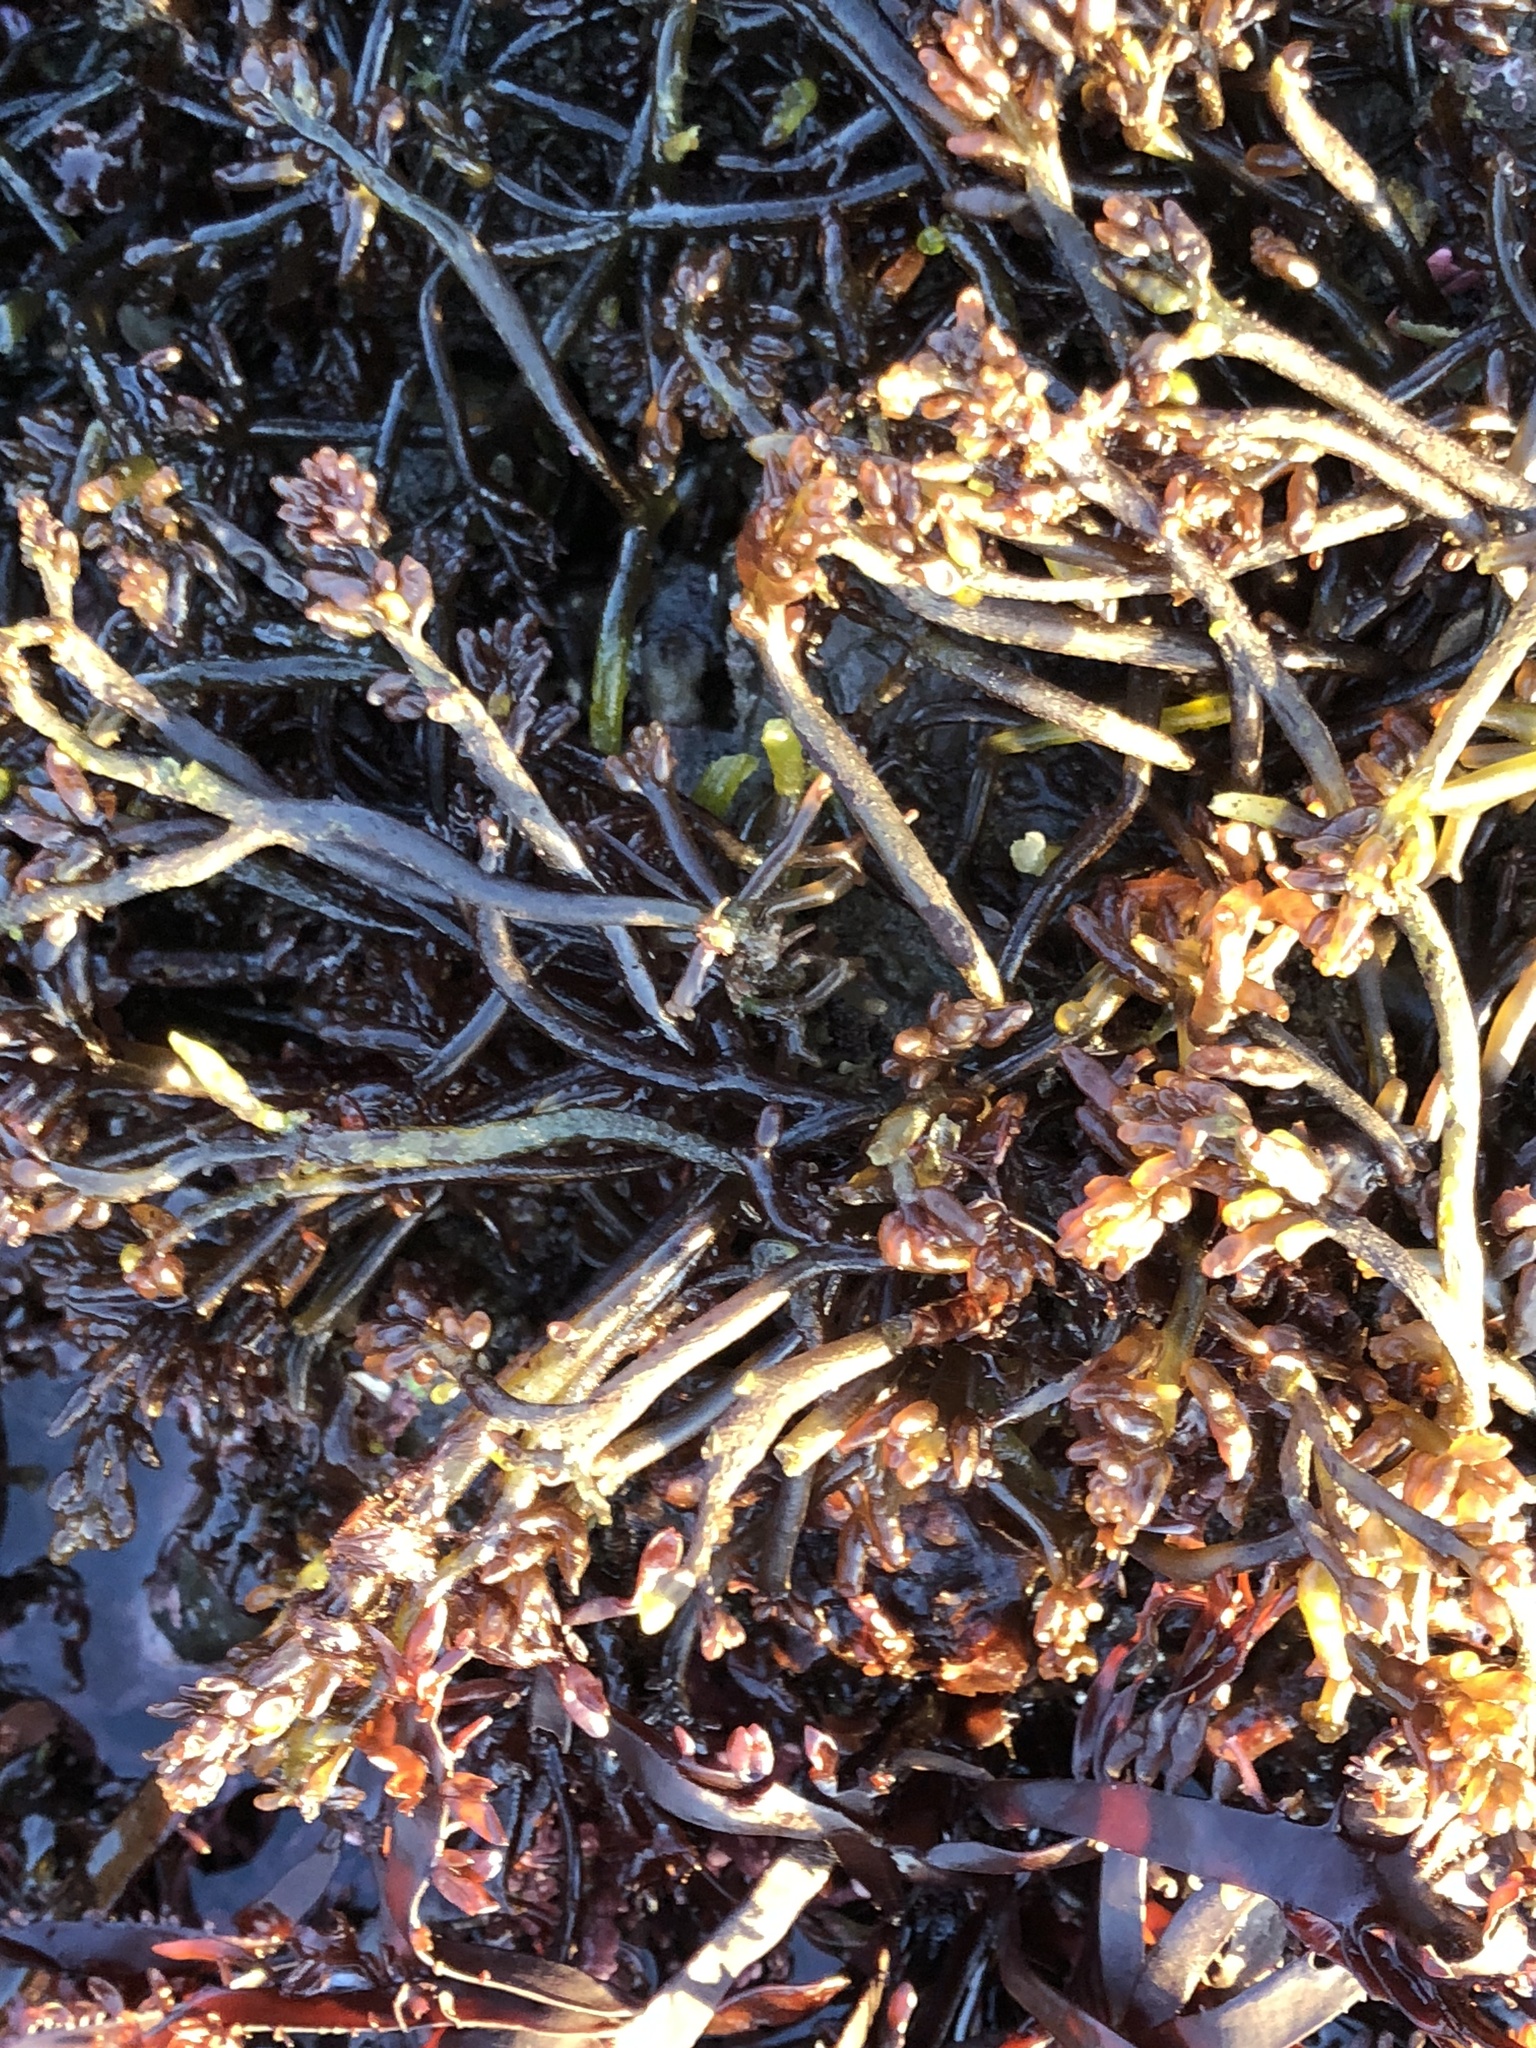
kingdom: Plantae
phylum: Rhodophyta
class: Florideophyceae
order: Rhodymeniales
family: Champiaceae
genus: Neogastroclonium
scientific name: Neogastroclonium subarticulatum
